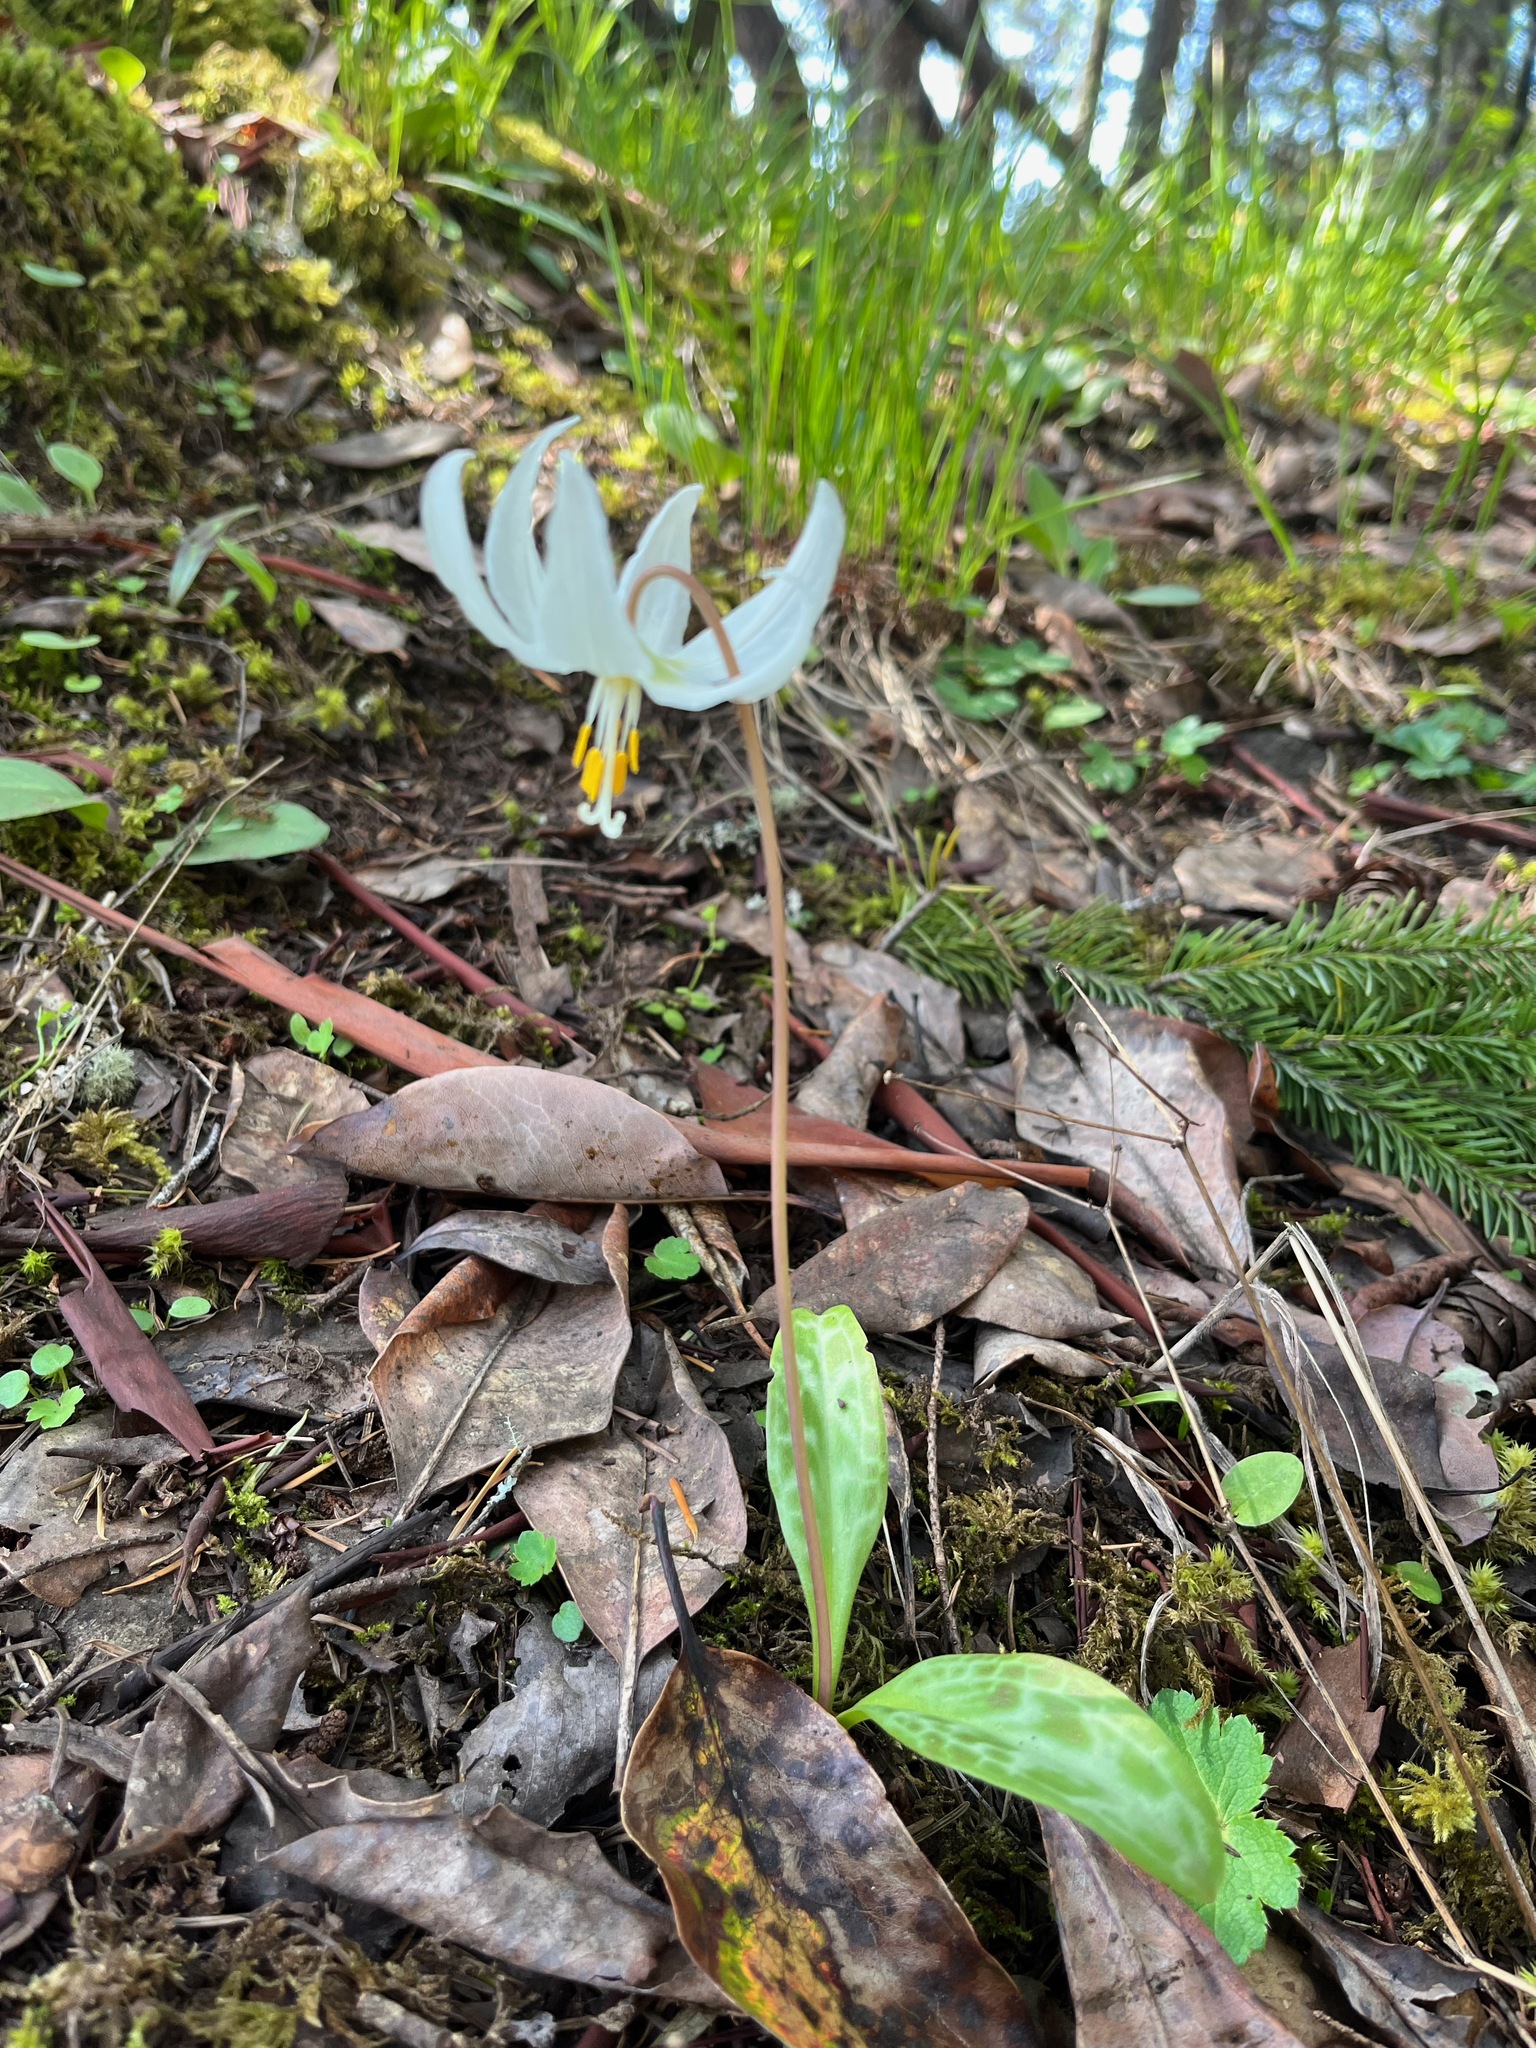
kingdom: Plantae
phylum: Tracheophyta
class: Liliopsida
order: Liliales
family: Liliaceae
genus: Erythronium
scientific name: Erythronium oregonum
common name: Giant adder's-tongue
